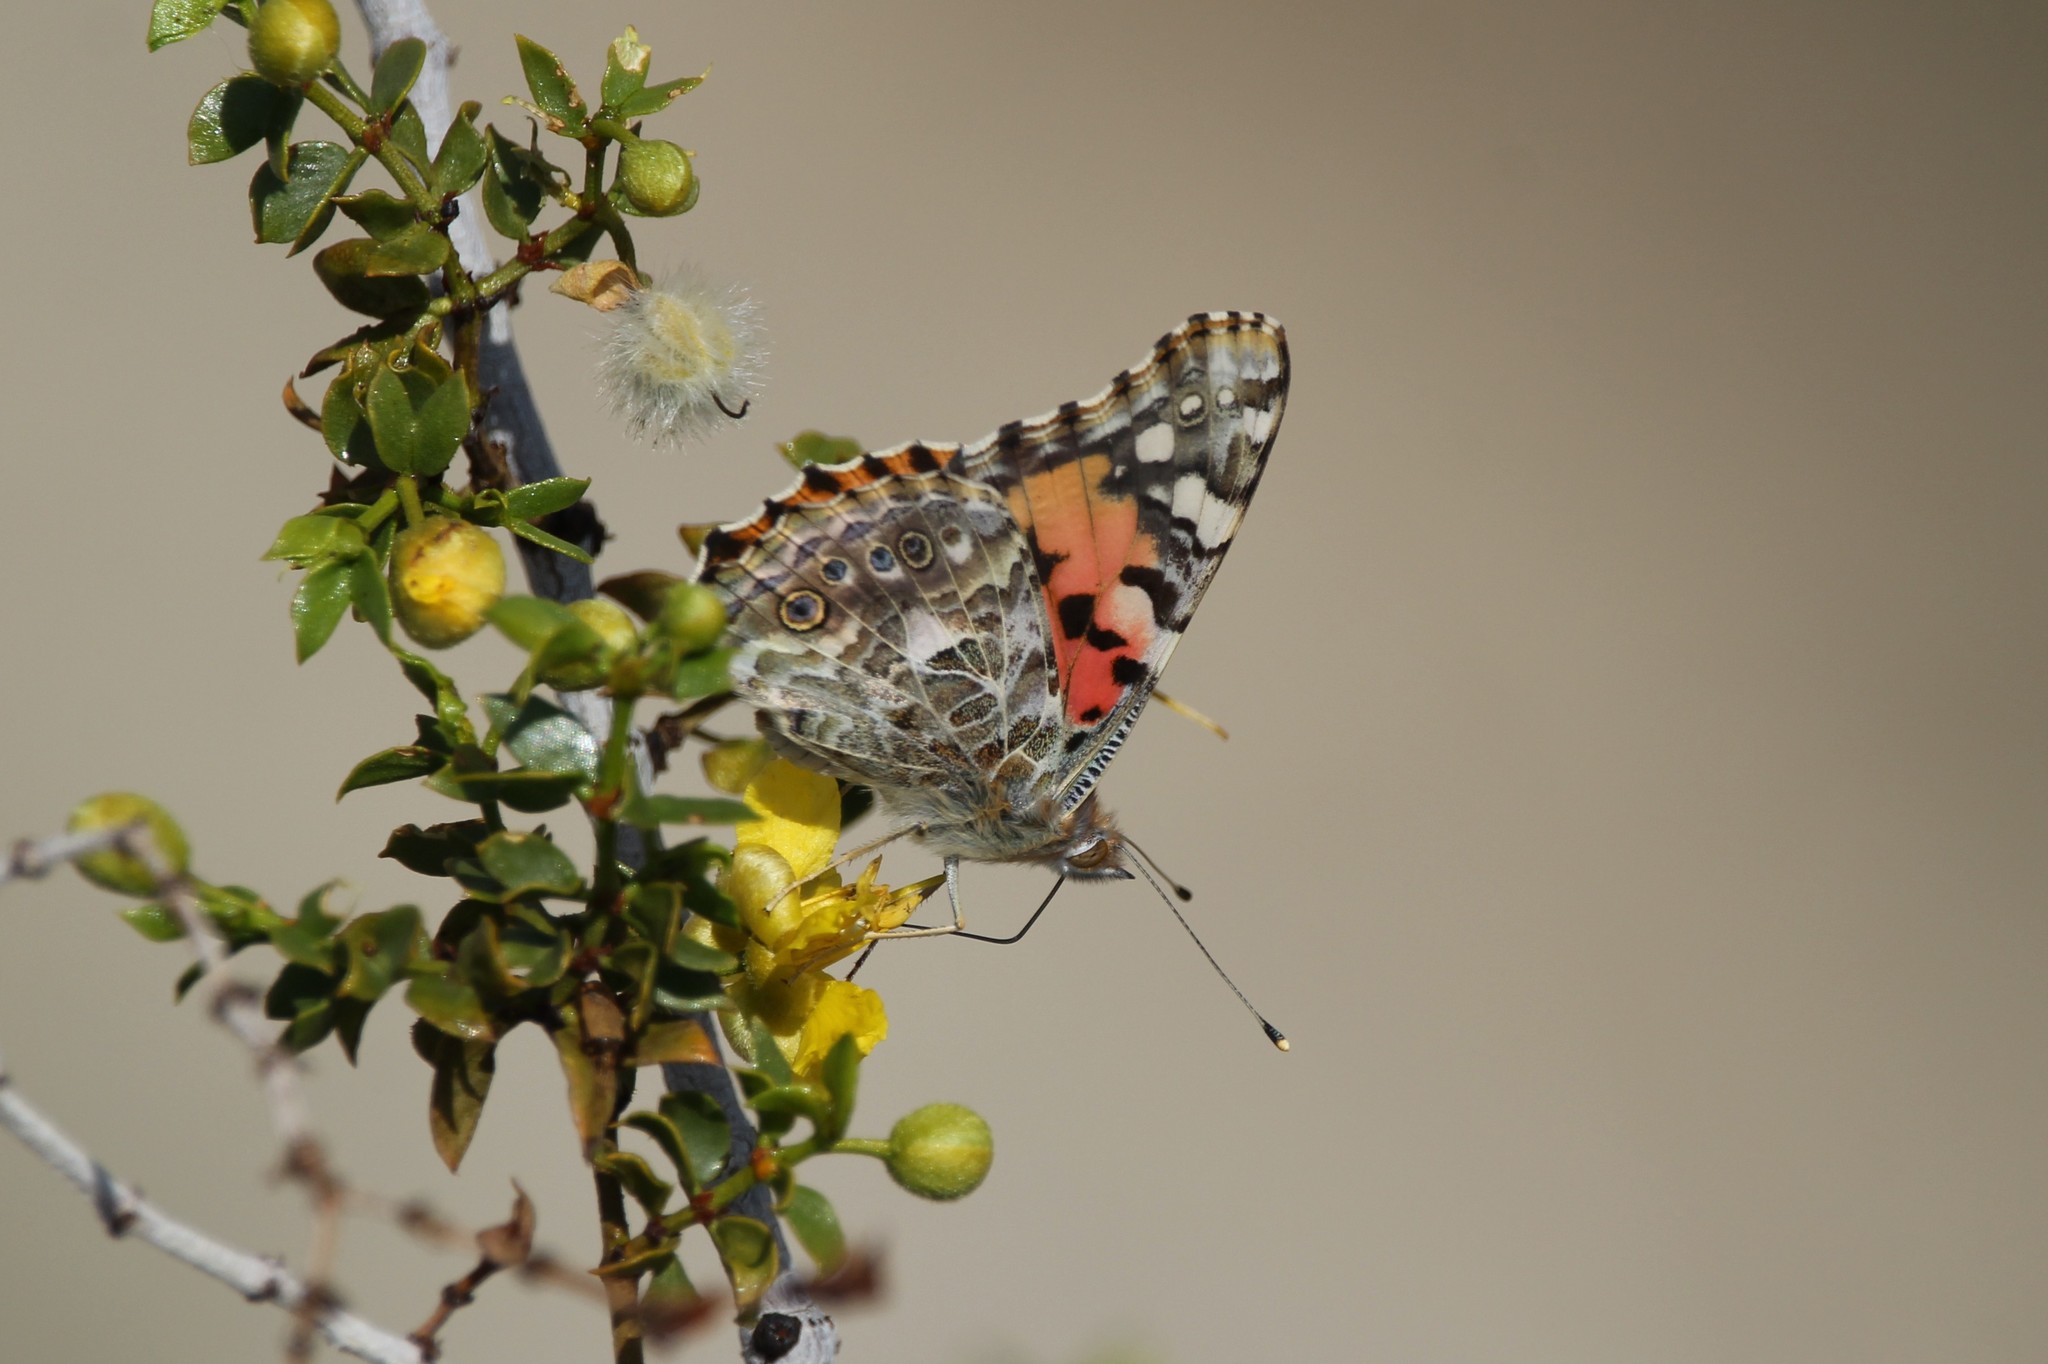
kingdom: Animalia
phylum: Arthropoda
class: Insecta
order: Lepidoptera
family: Nymphalidae
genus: Vanessa
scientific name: Vanessa cardui
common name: Painted lady
